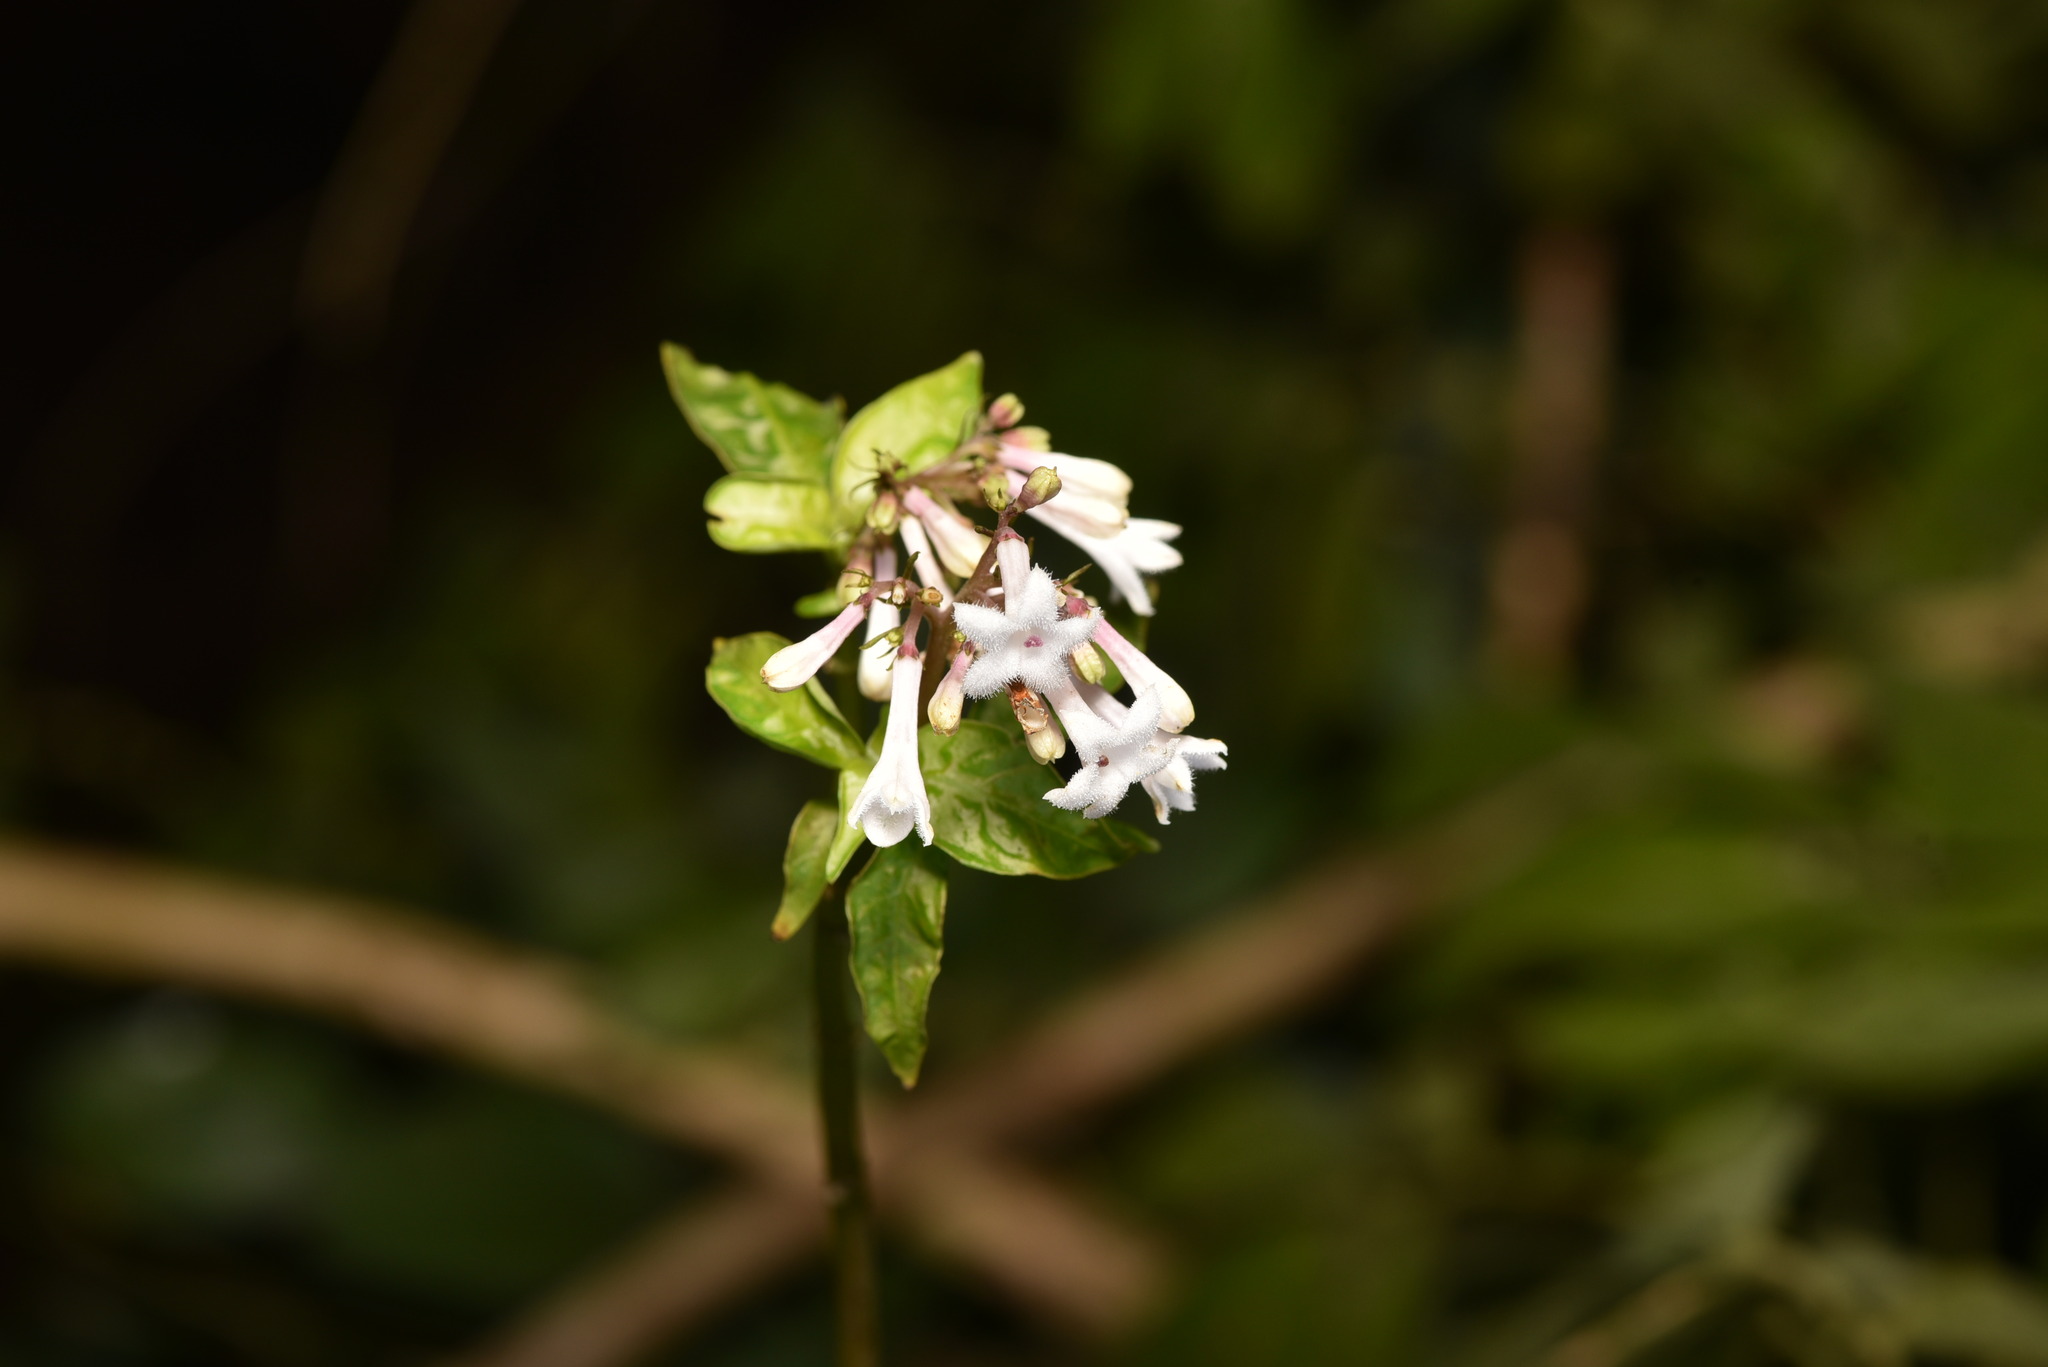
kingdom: Plantae
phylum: Tracheophyta
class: Magnoliopsida
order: Gentianales
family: Rubiaceae
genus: Ophiorrhiza
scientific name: Ophiorrhiza japonica
